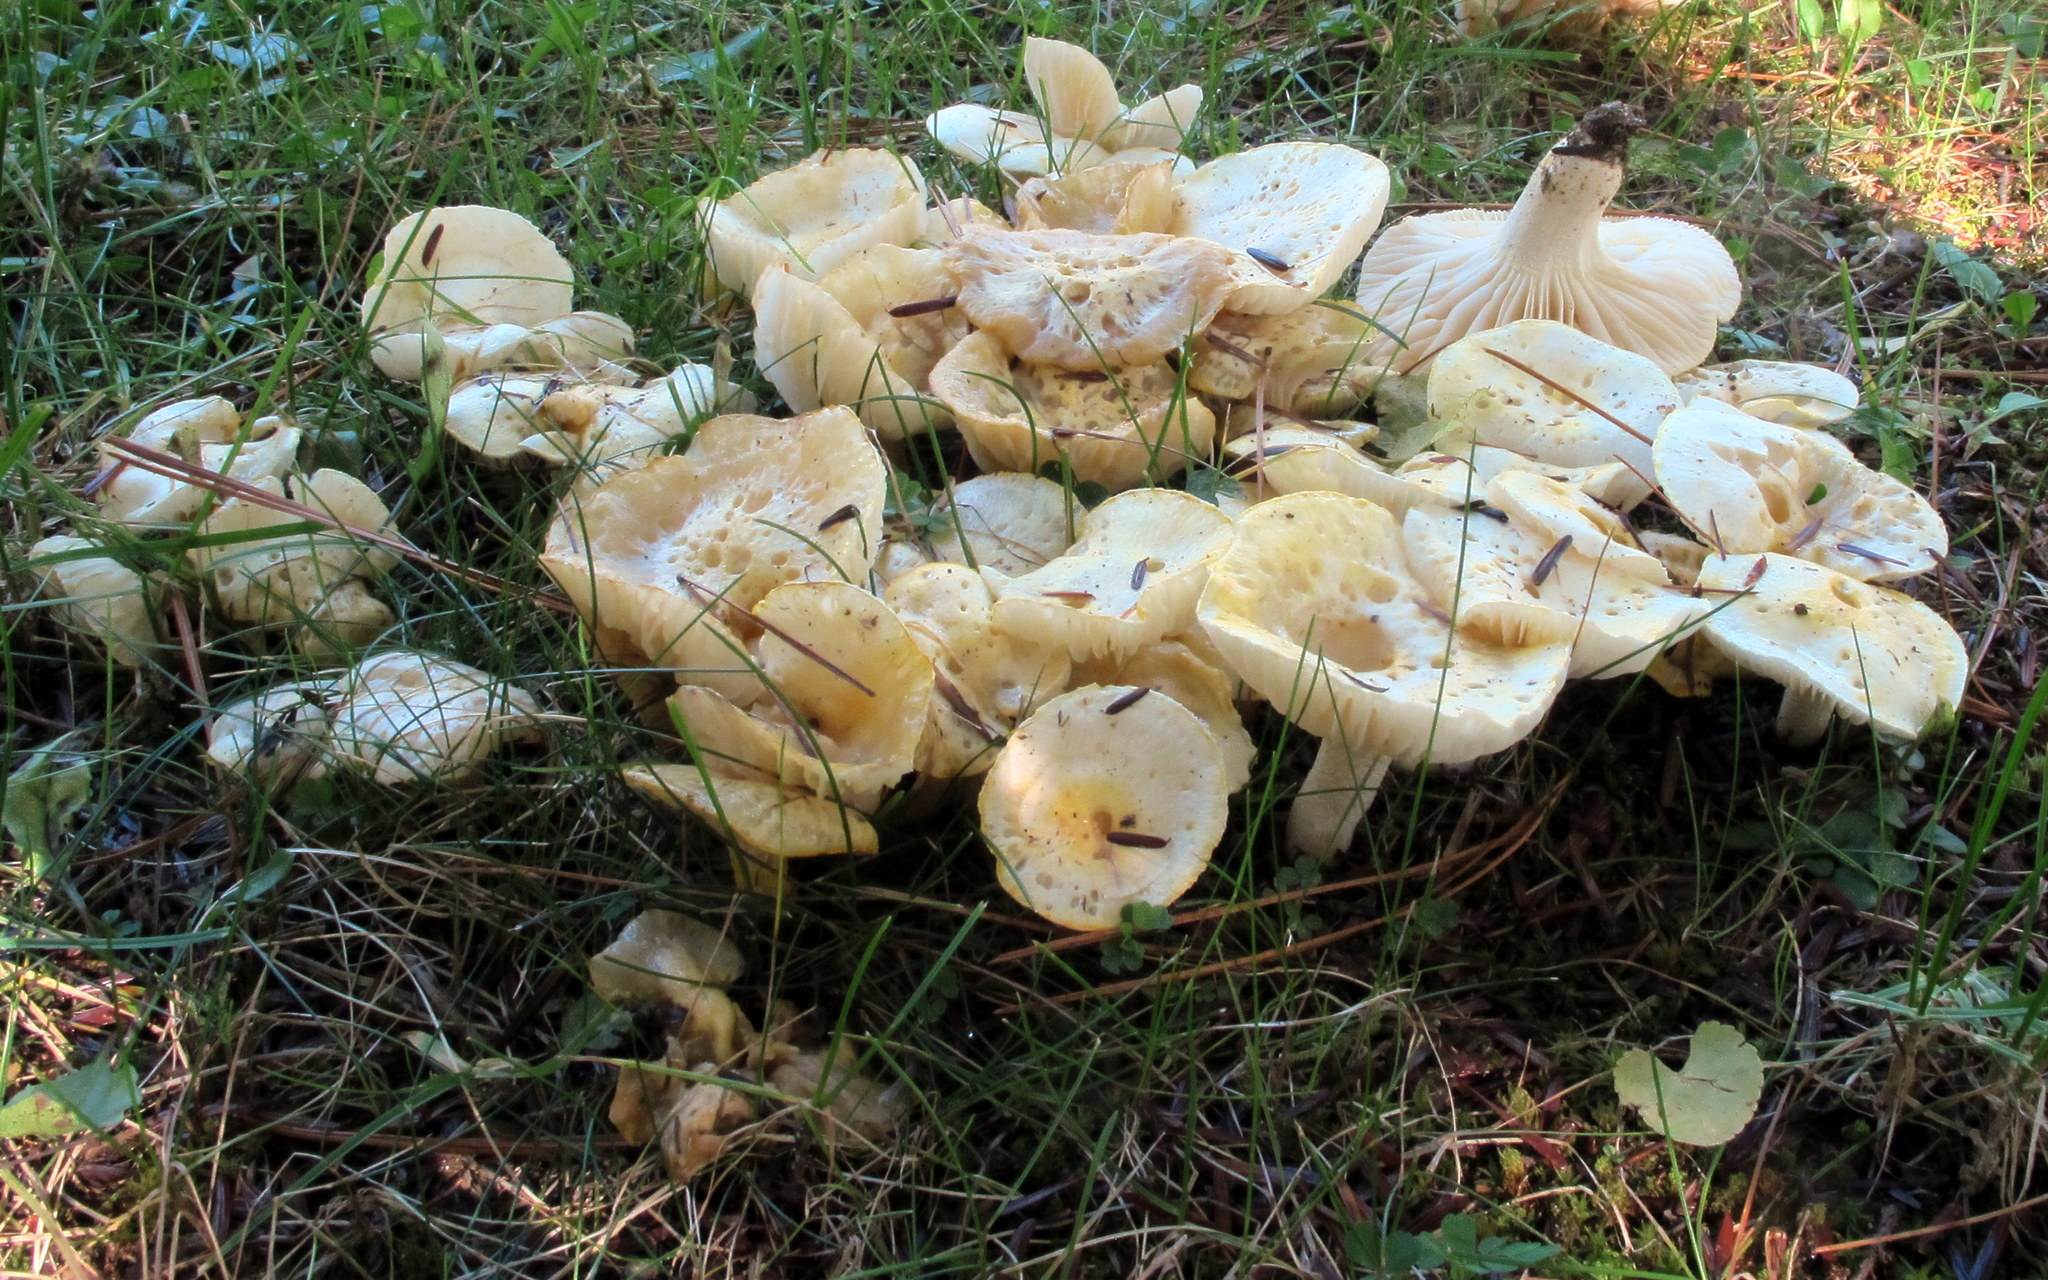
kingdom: Fungi
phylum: Basidiomycota
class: Agaricomycetes
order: Agaricales
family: Hygrophoraceae
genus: Hygrophorus
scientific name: Hygrophorus chrysodon
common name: Gold flecked woodwax
